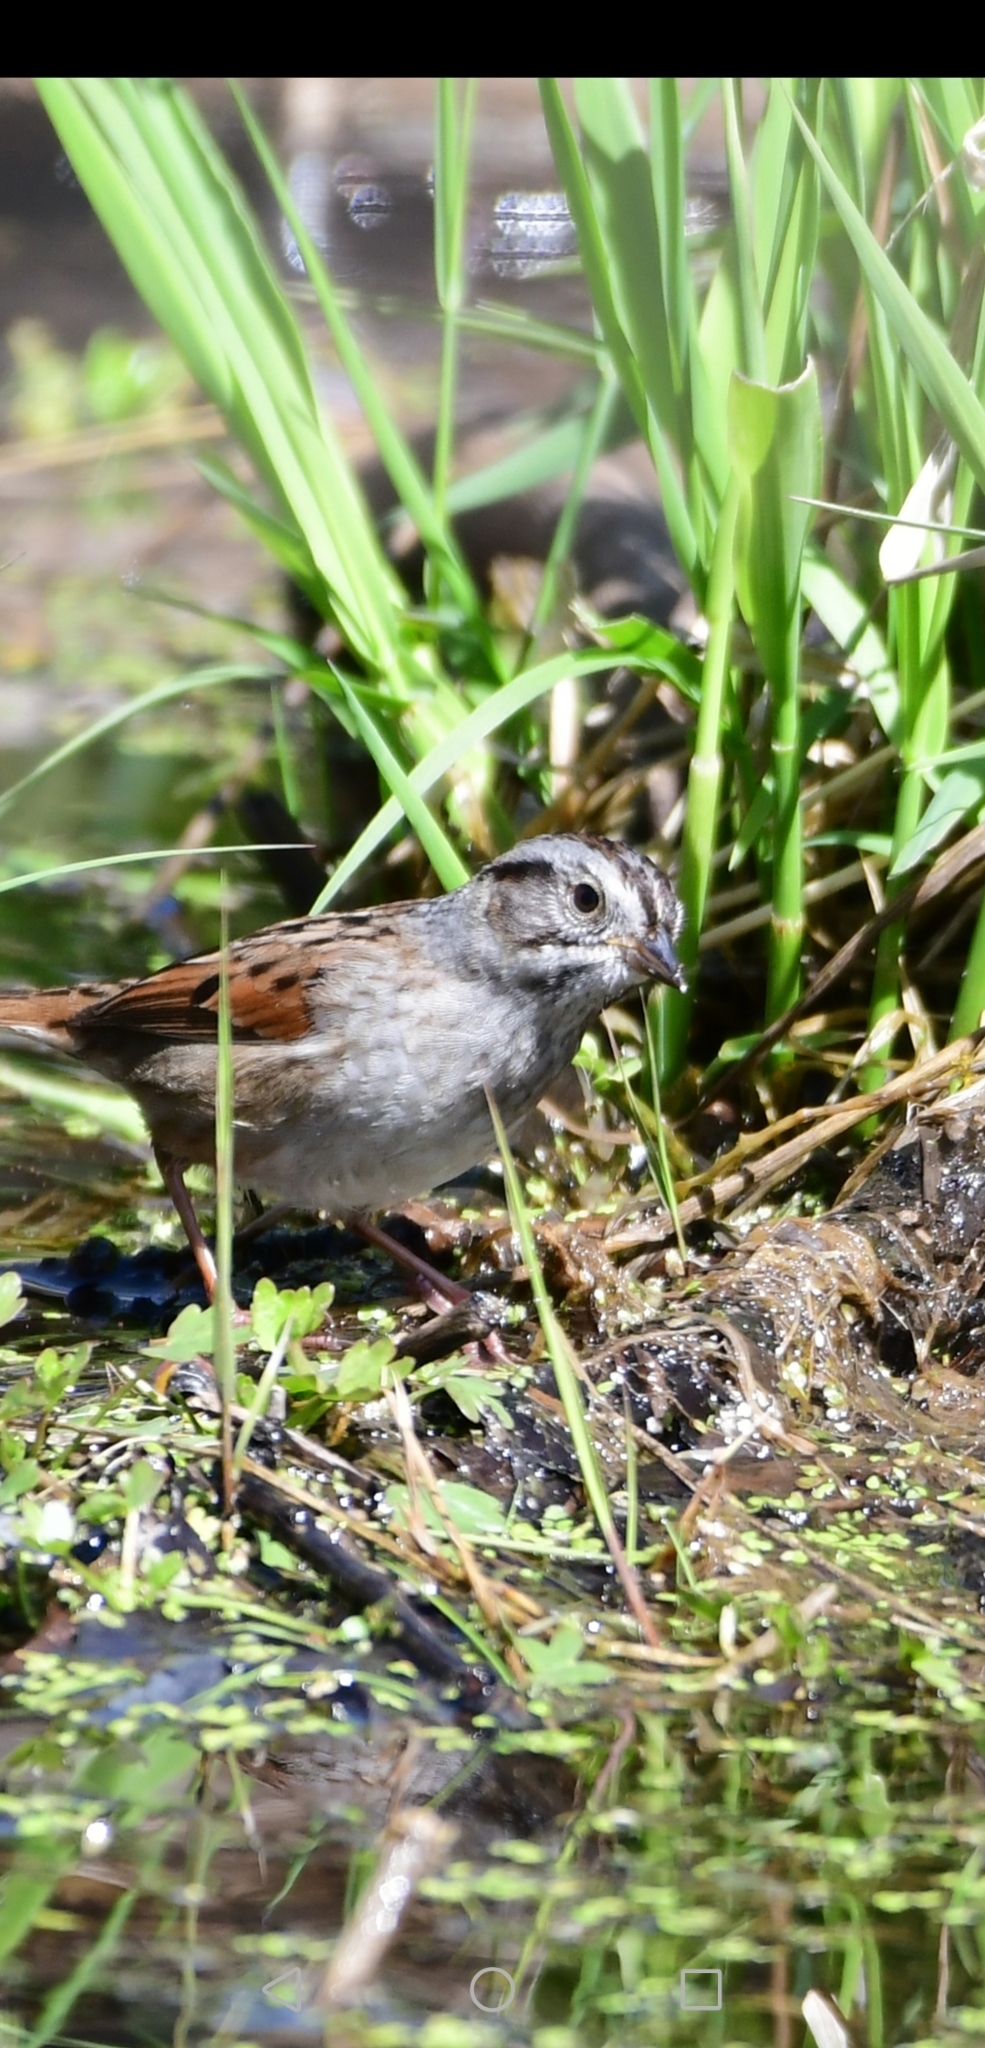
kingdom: Animalia
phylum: Chordata
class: Aves
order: Passeriformes
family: Passerellidae
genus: Melospiza
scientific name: Melospiza georgiana
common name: Swamp sparrow
